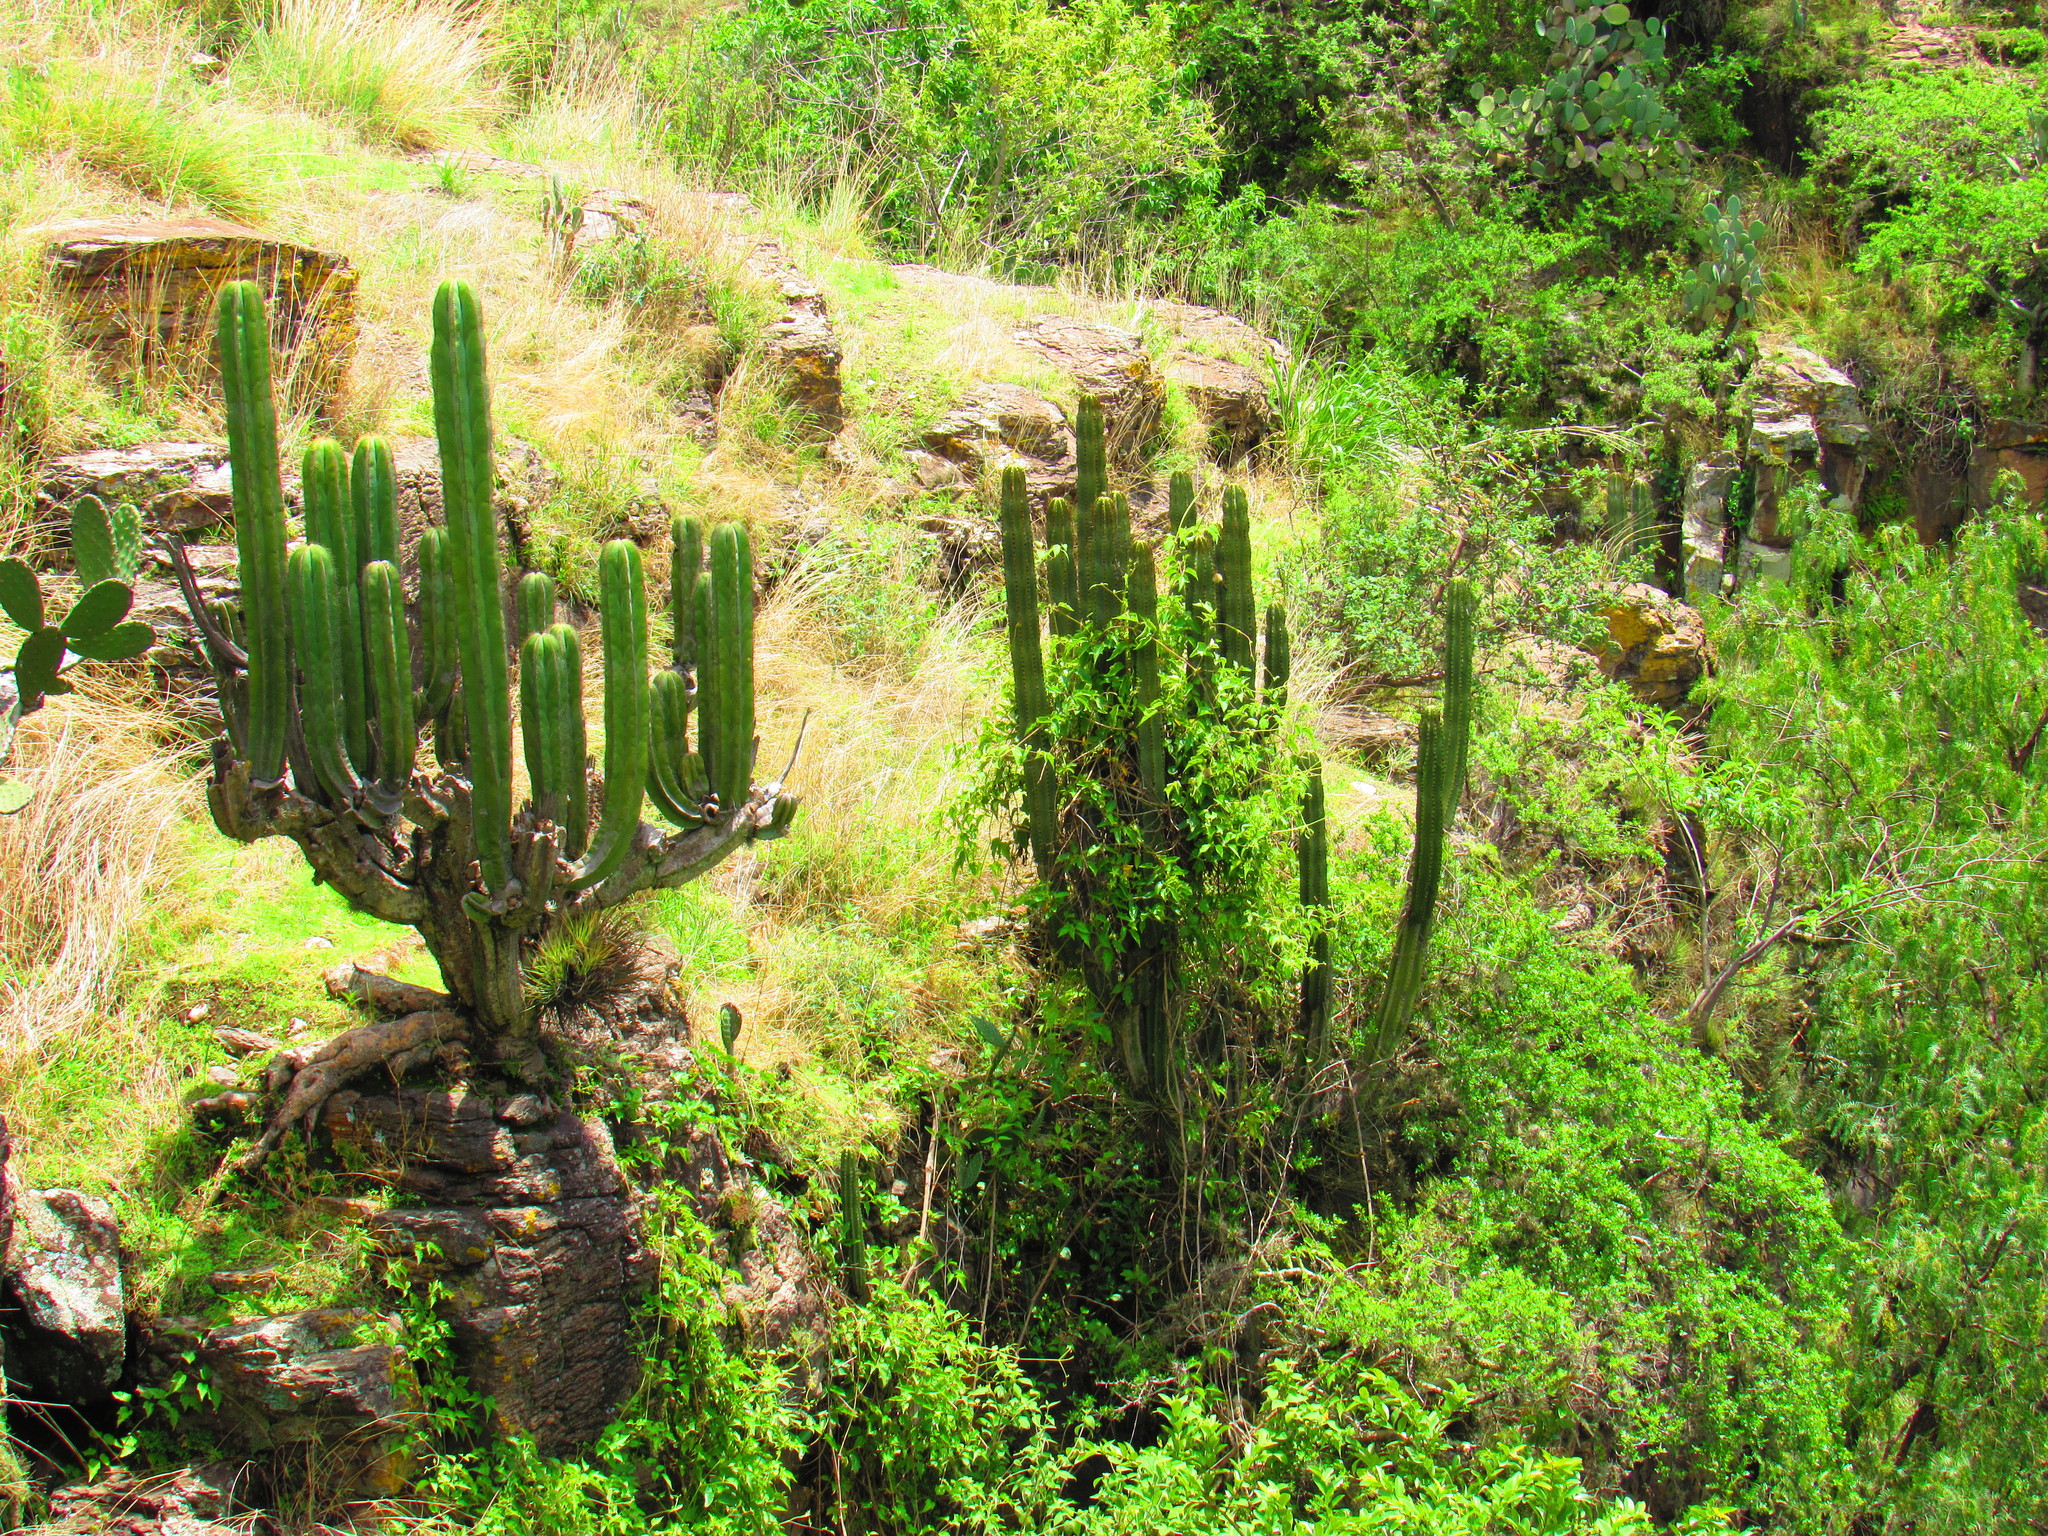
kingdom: Plantae
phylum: Tracheophyta
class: Magnoliopsida
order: Caryophyllales
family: Cactaceae
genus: Stenocereus
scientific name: Stenocereus dumortieri
